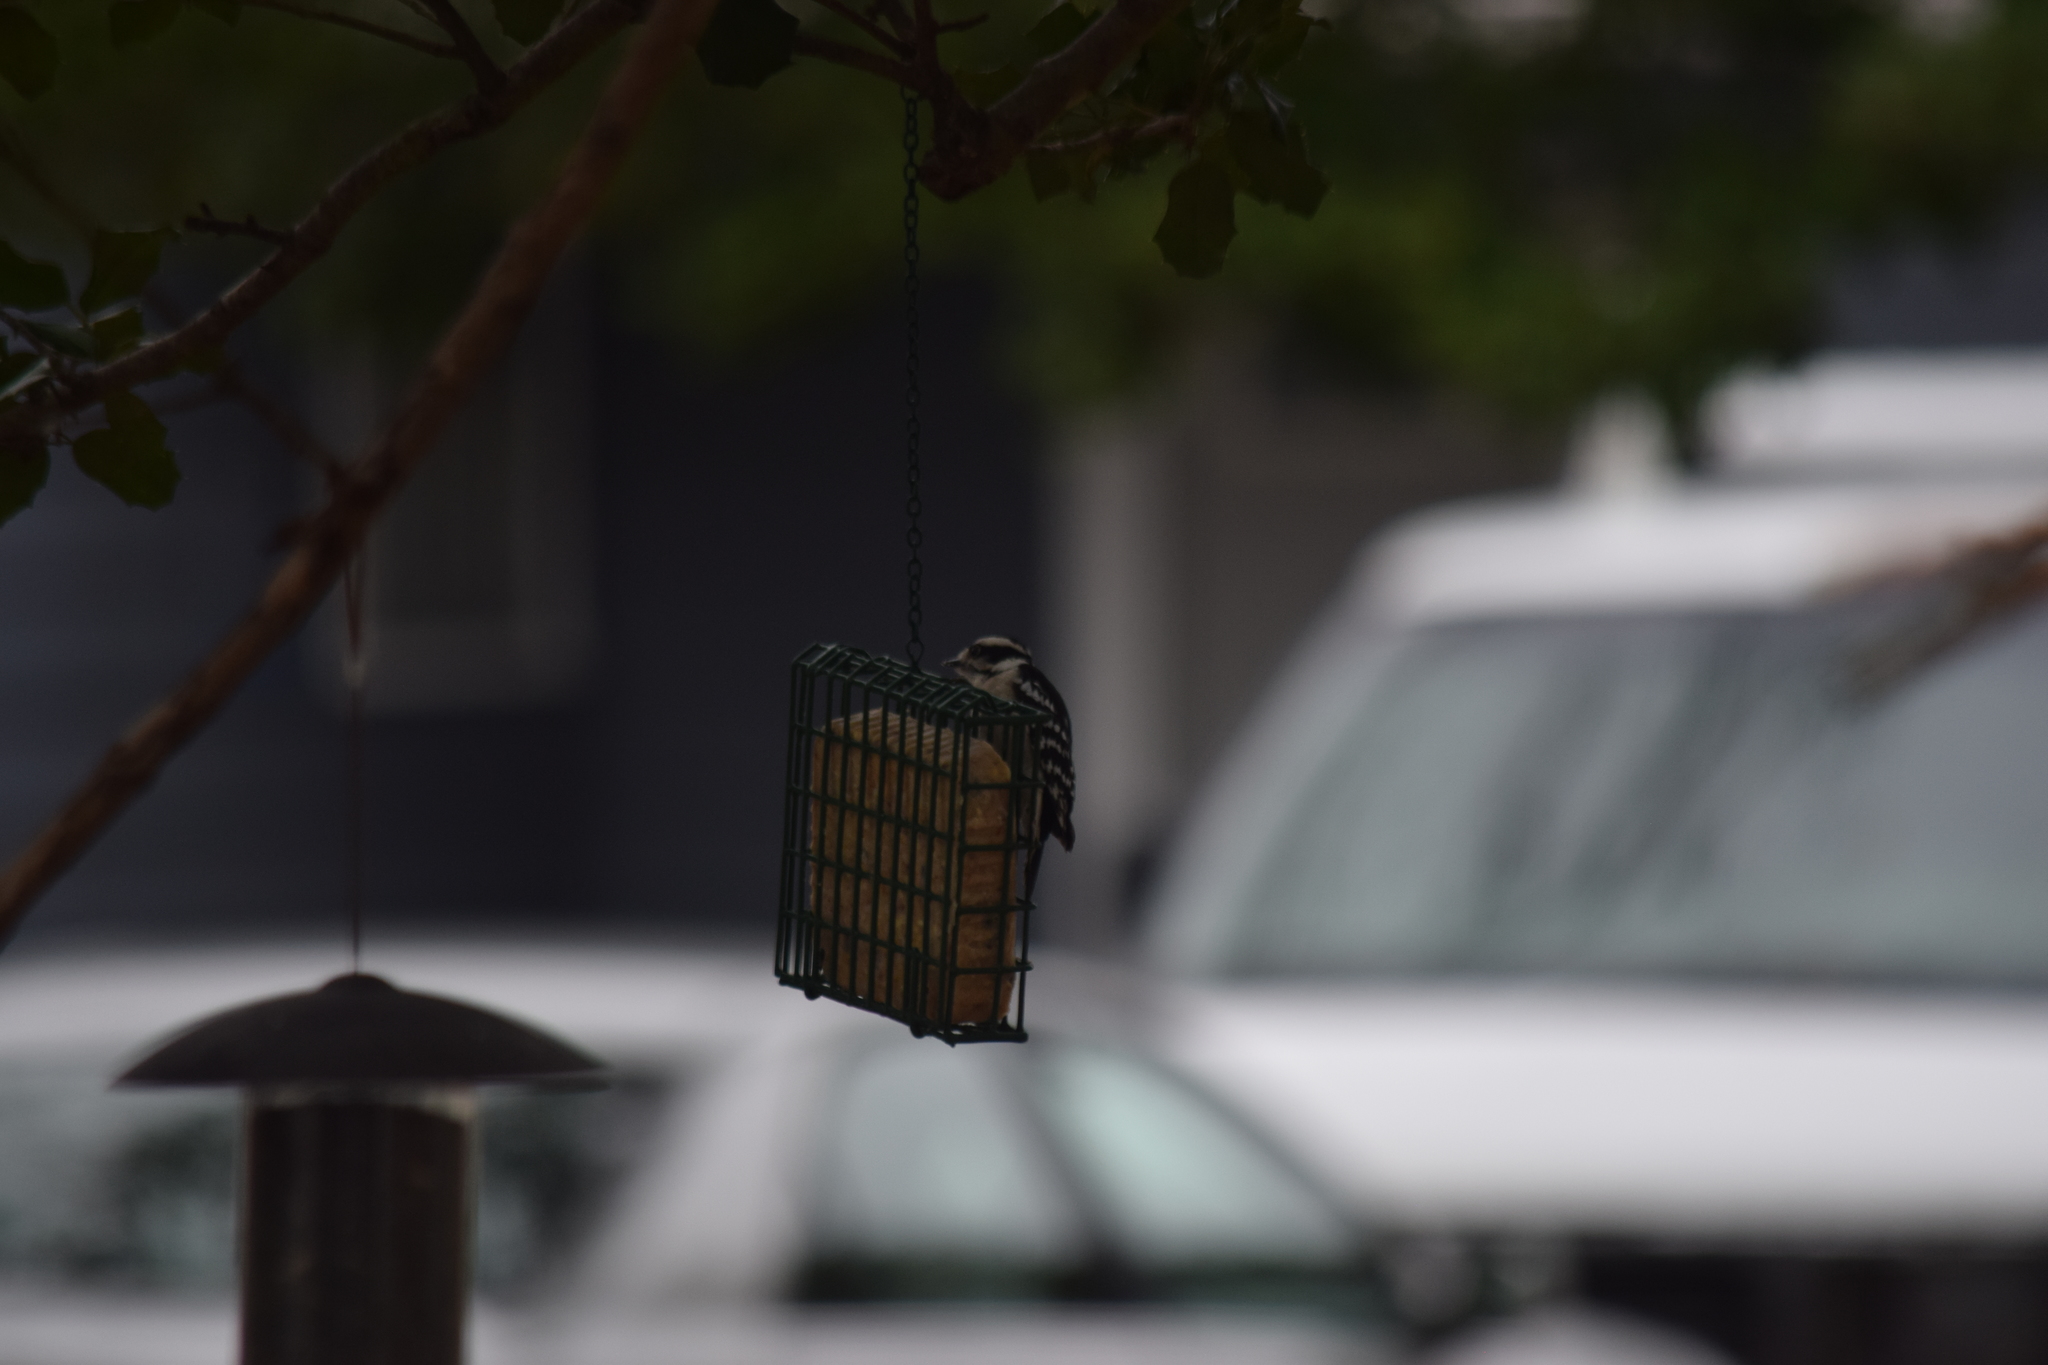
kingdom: Animalia
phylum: Chordata
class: Aves
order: Piciformes
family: Picidae
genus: Dryobates
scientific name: Dryobates pubescens
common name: Downy woodpecker
